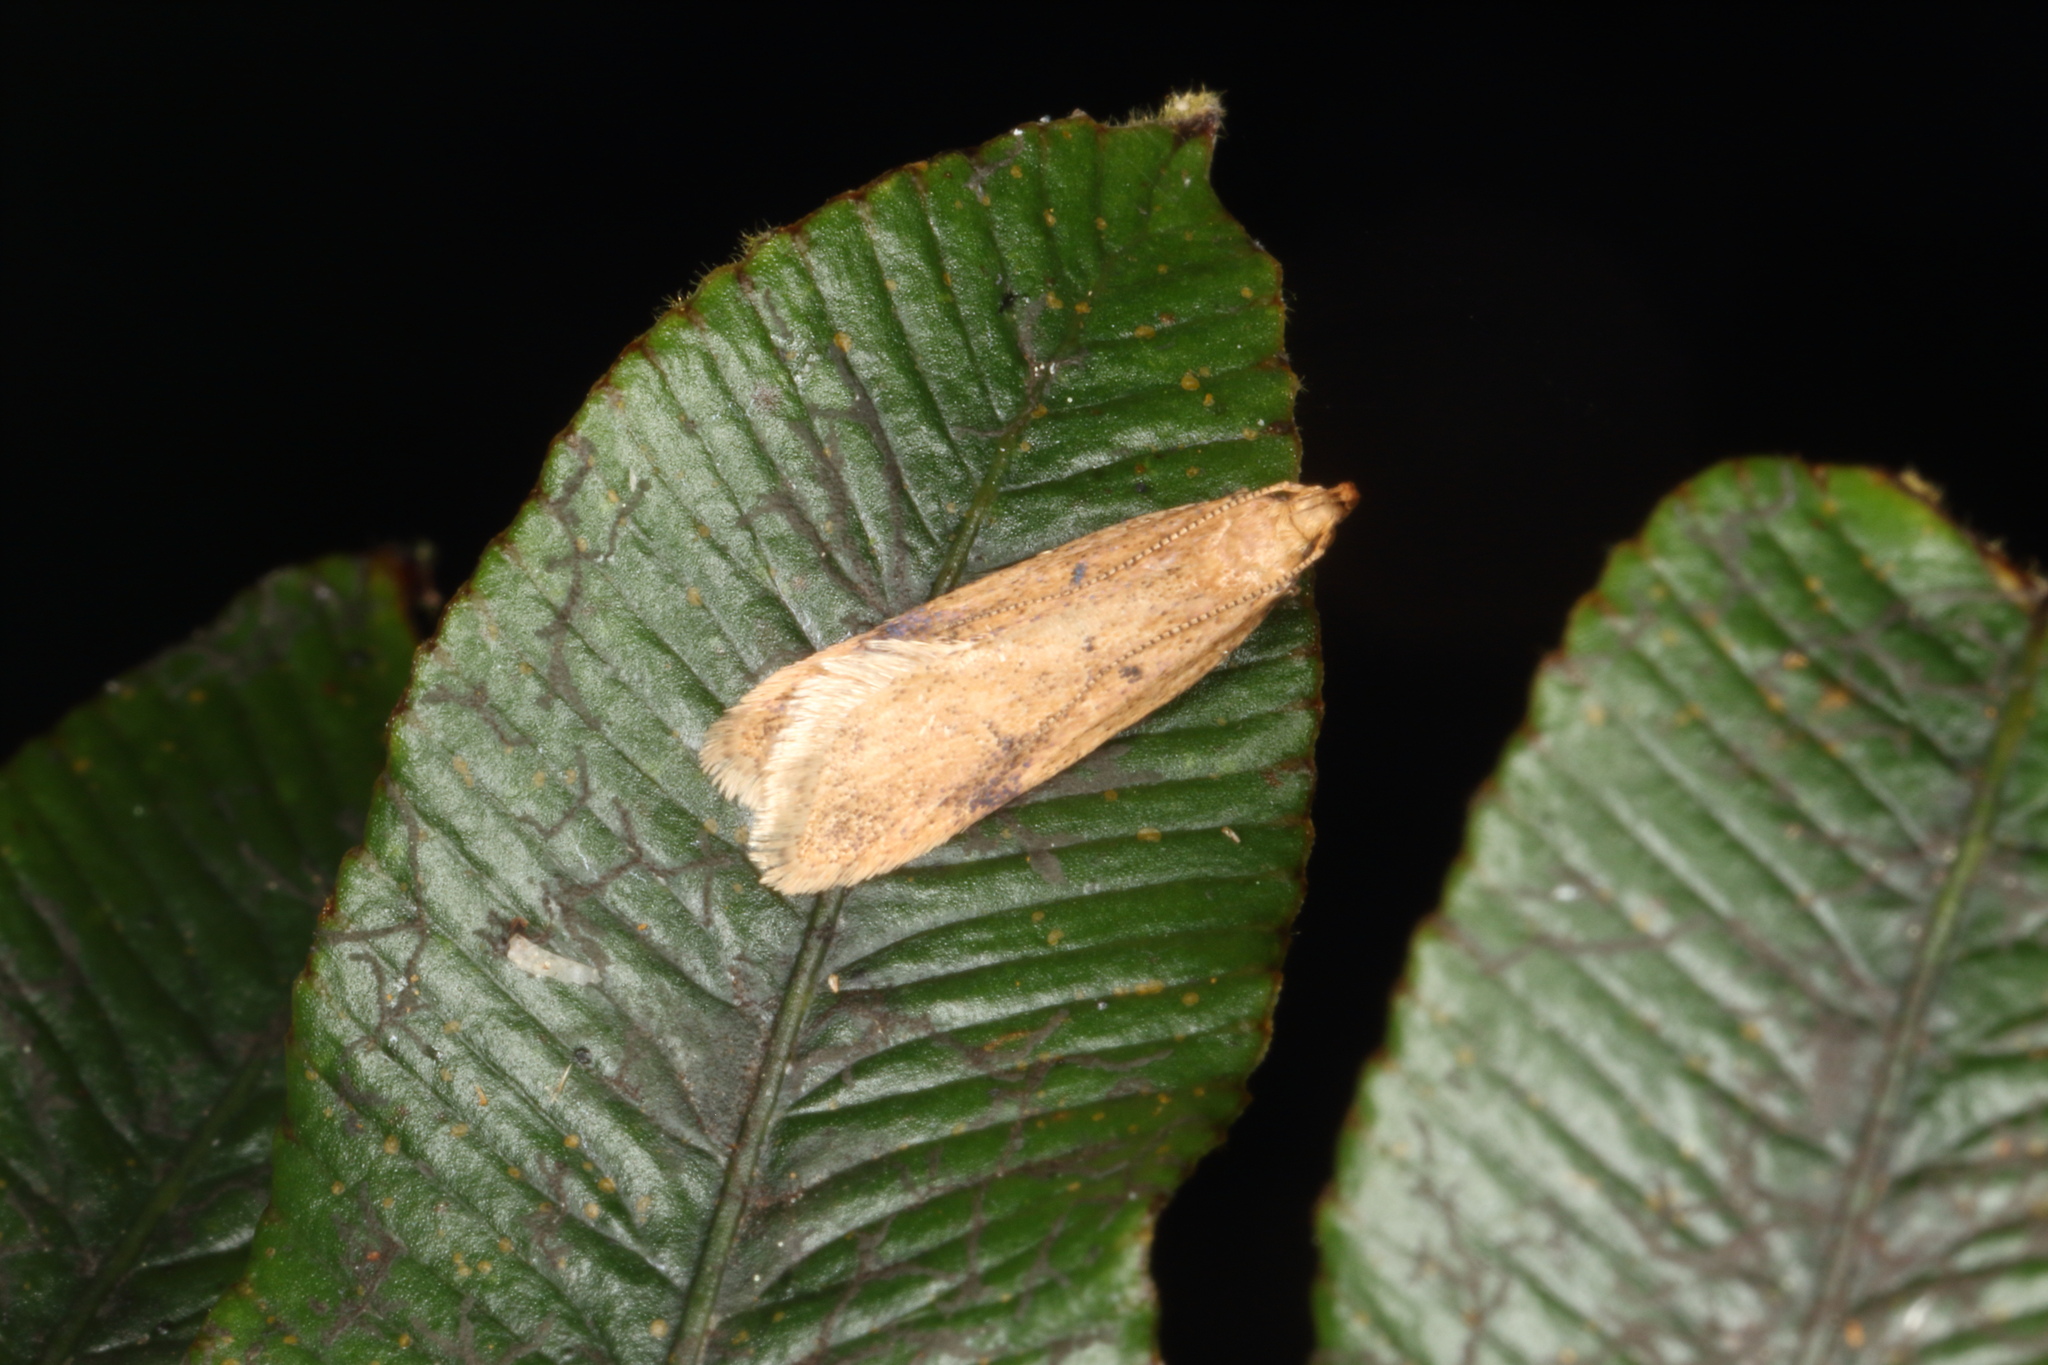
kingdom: Animalia
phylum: Arthropoda
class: Insecta
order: Lepidoptera
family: Oecophoridae
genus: Gymnobathra
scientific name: Gymnobathra levigata
